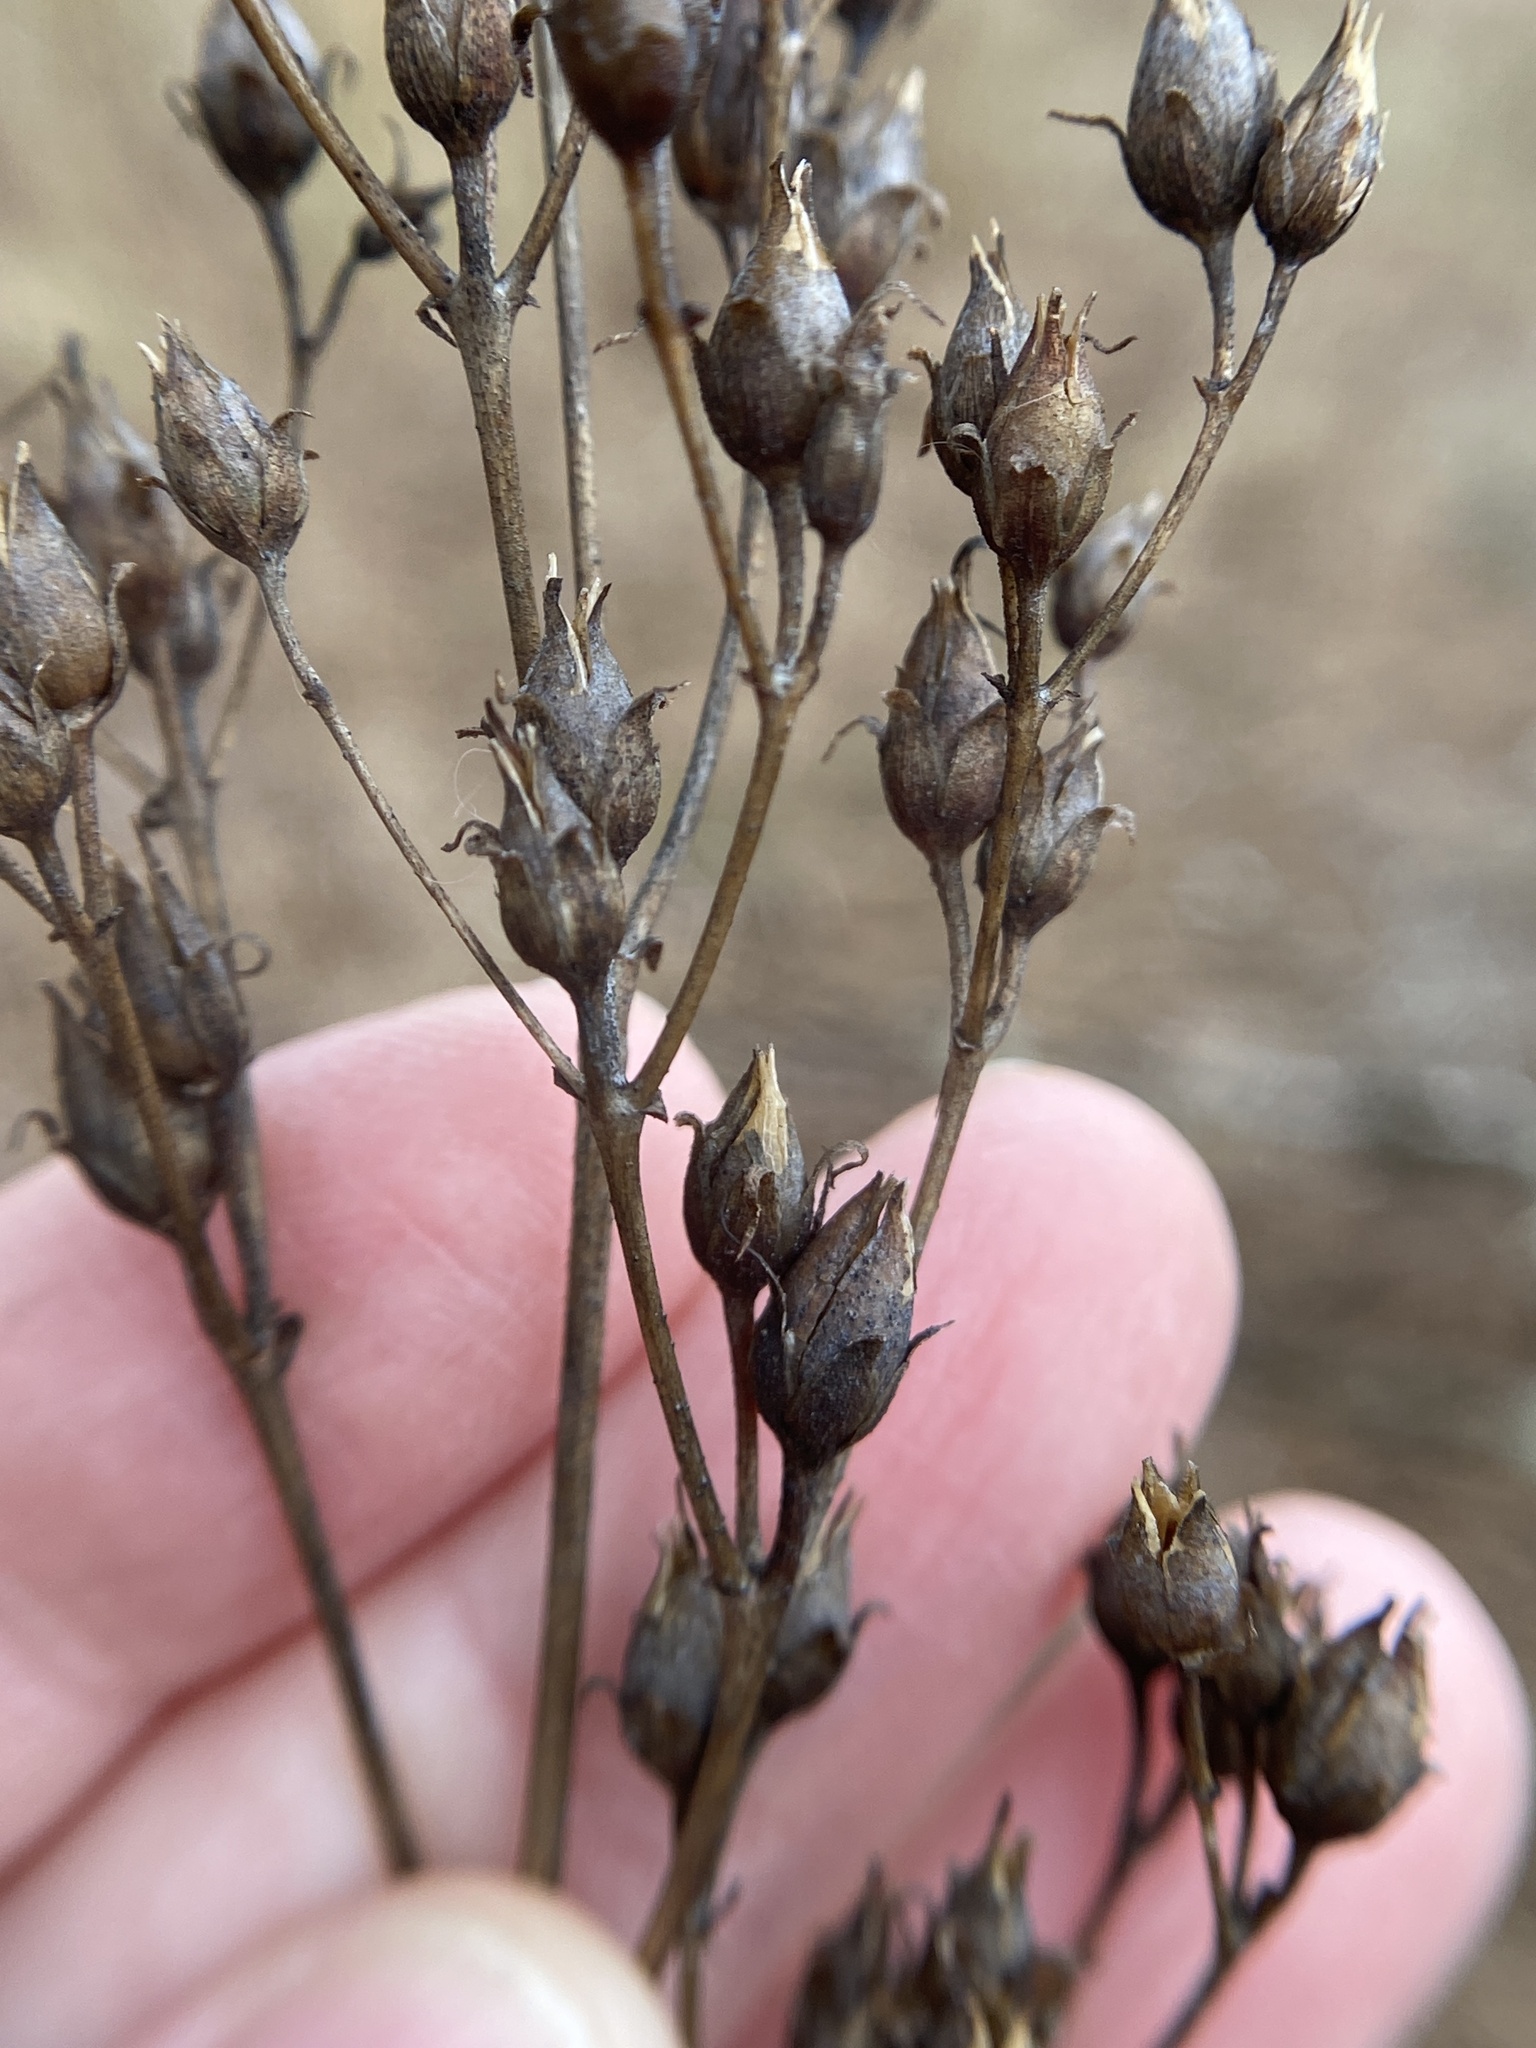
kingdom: Plantae
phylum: Tracheophyta
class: Magnoliopsida
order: Lamiales
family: Plantaginaceae
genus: Penstemon
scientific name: Penstemon digitalis
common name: Foxglove beardtongue
